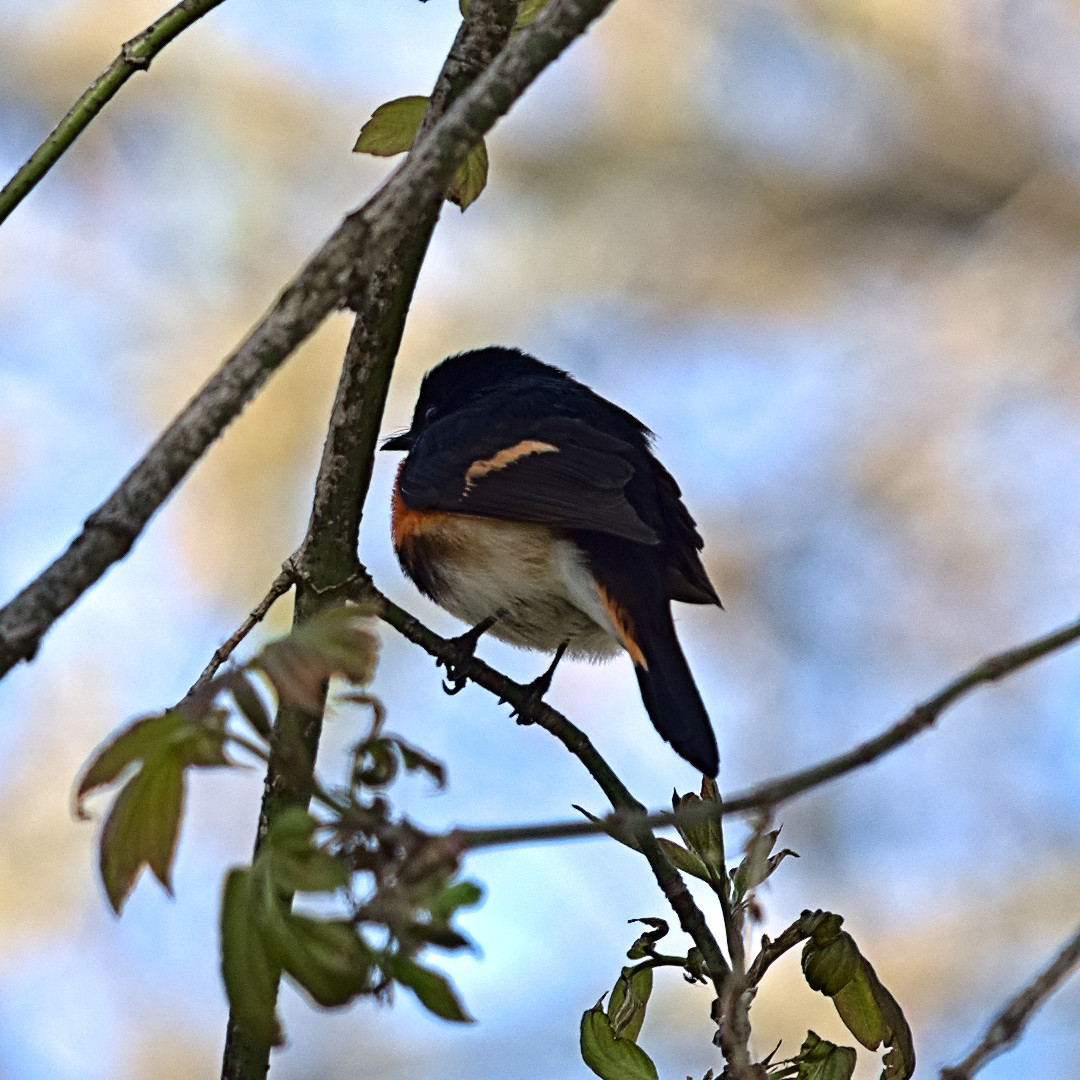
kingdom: Animalia
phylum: Chordata
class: Aves
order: Passeriformes
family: Parulidae
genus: Setophaga
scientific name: Setophaga ruticilla
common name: American redstart
